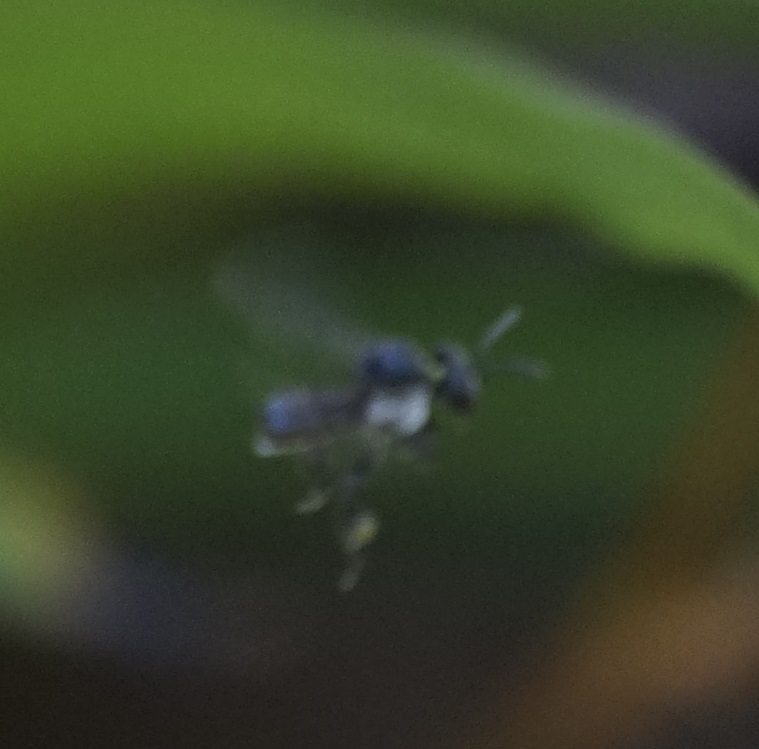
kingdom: Animalia
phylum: Arthropoda
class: Insecta
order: Hymenoptera
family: Apidae
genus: Tetragonula
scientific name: Tetragonula carbonaria
